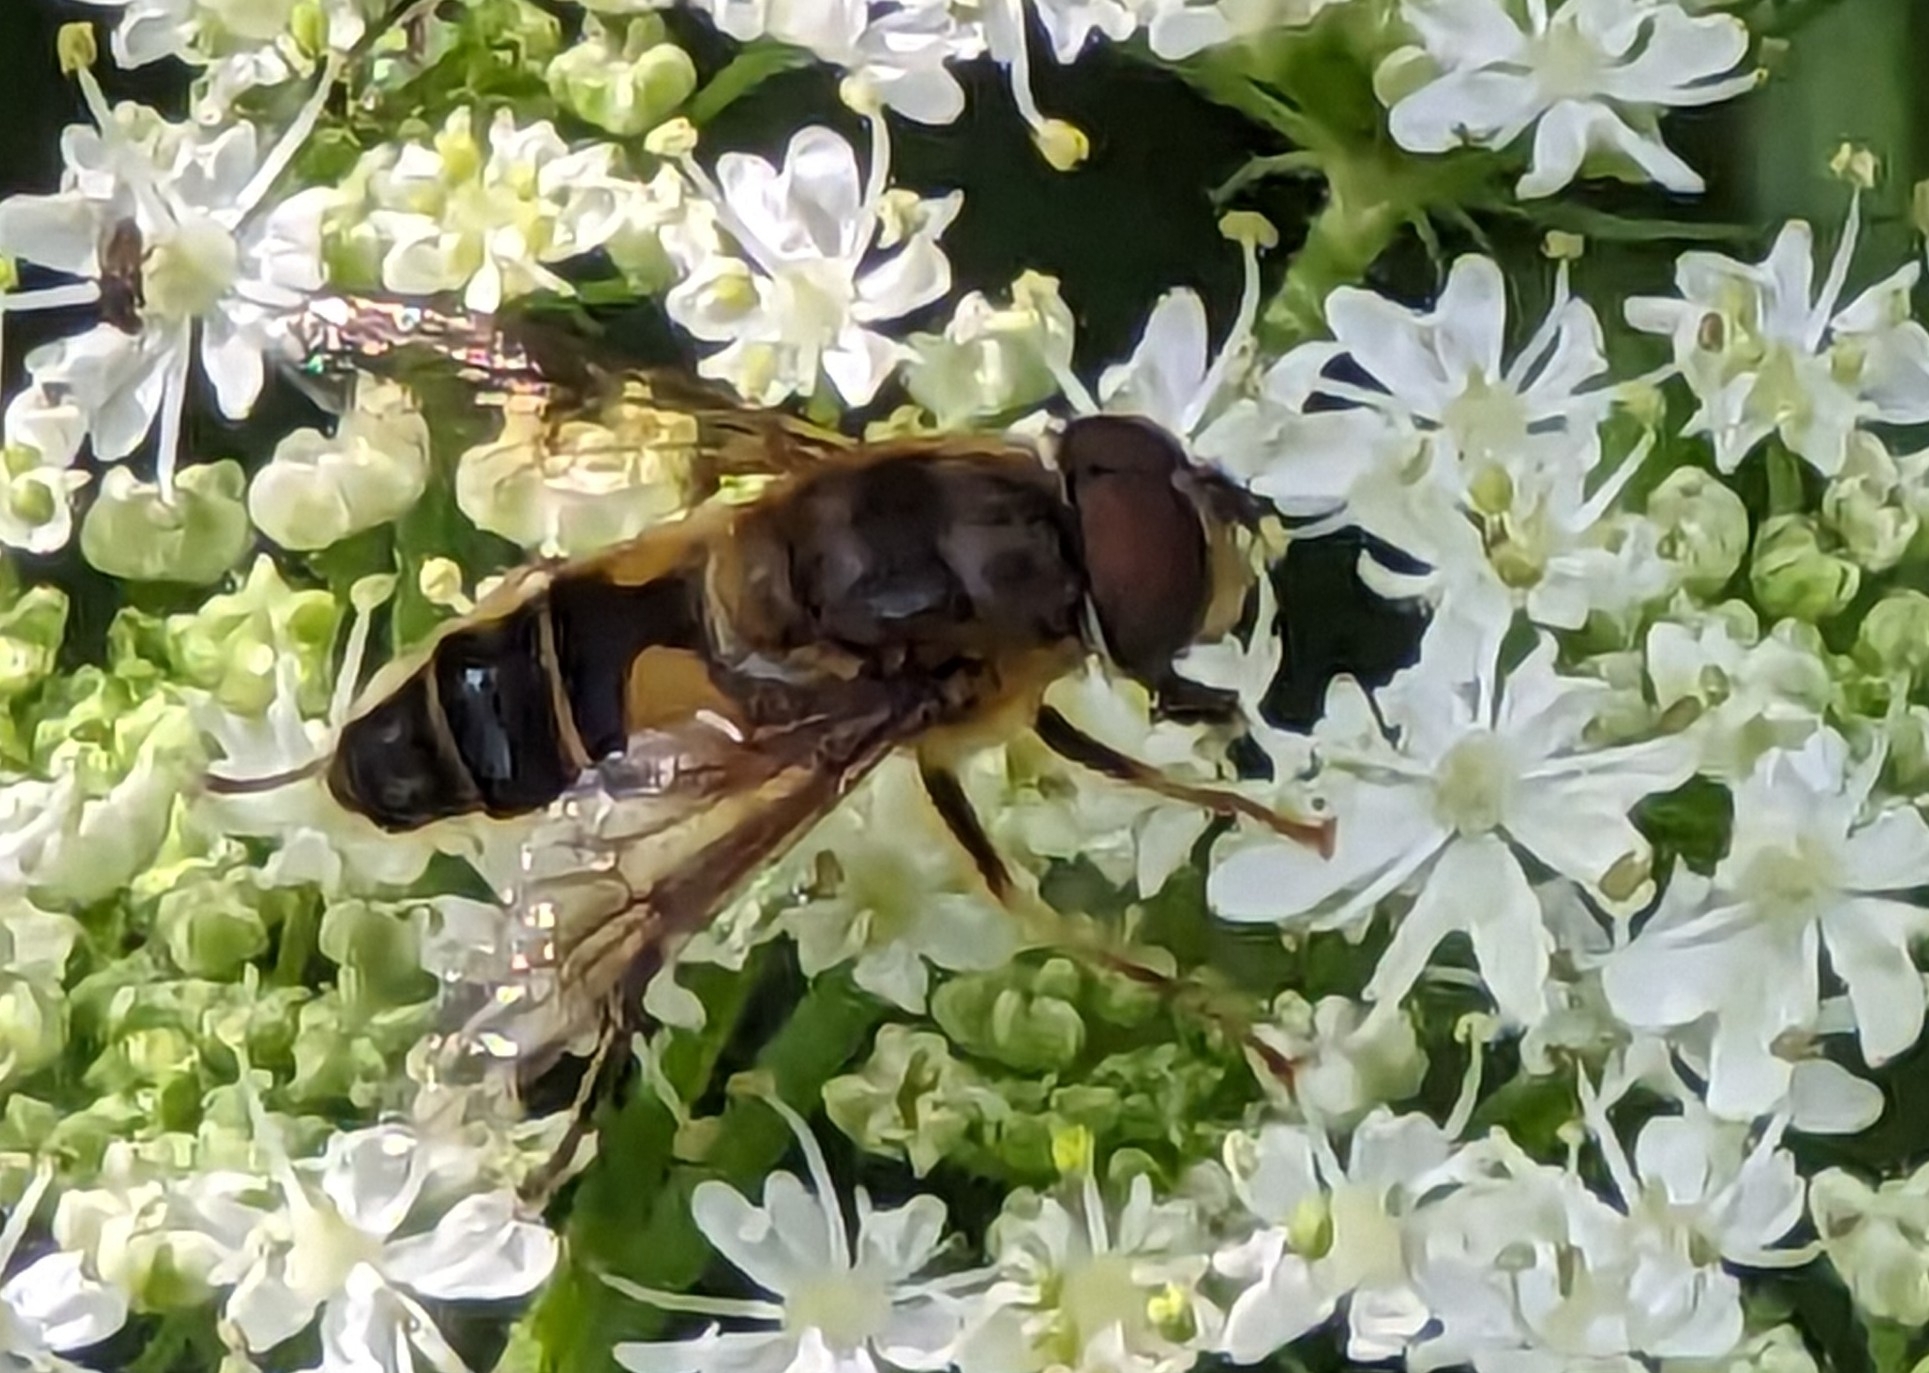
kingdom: Animalia
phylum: Arthropoda
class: Insecta
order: Diptera
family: Syrphidae
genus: Eristalis
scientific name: Eristalis pertinax
